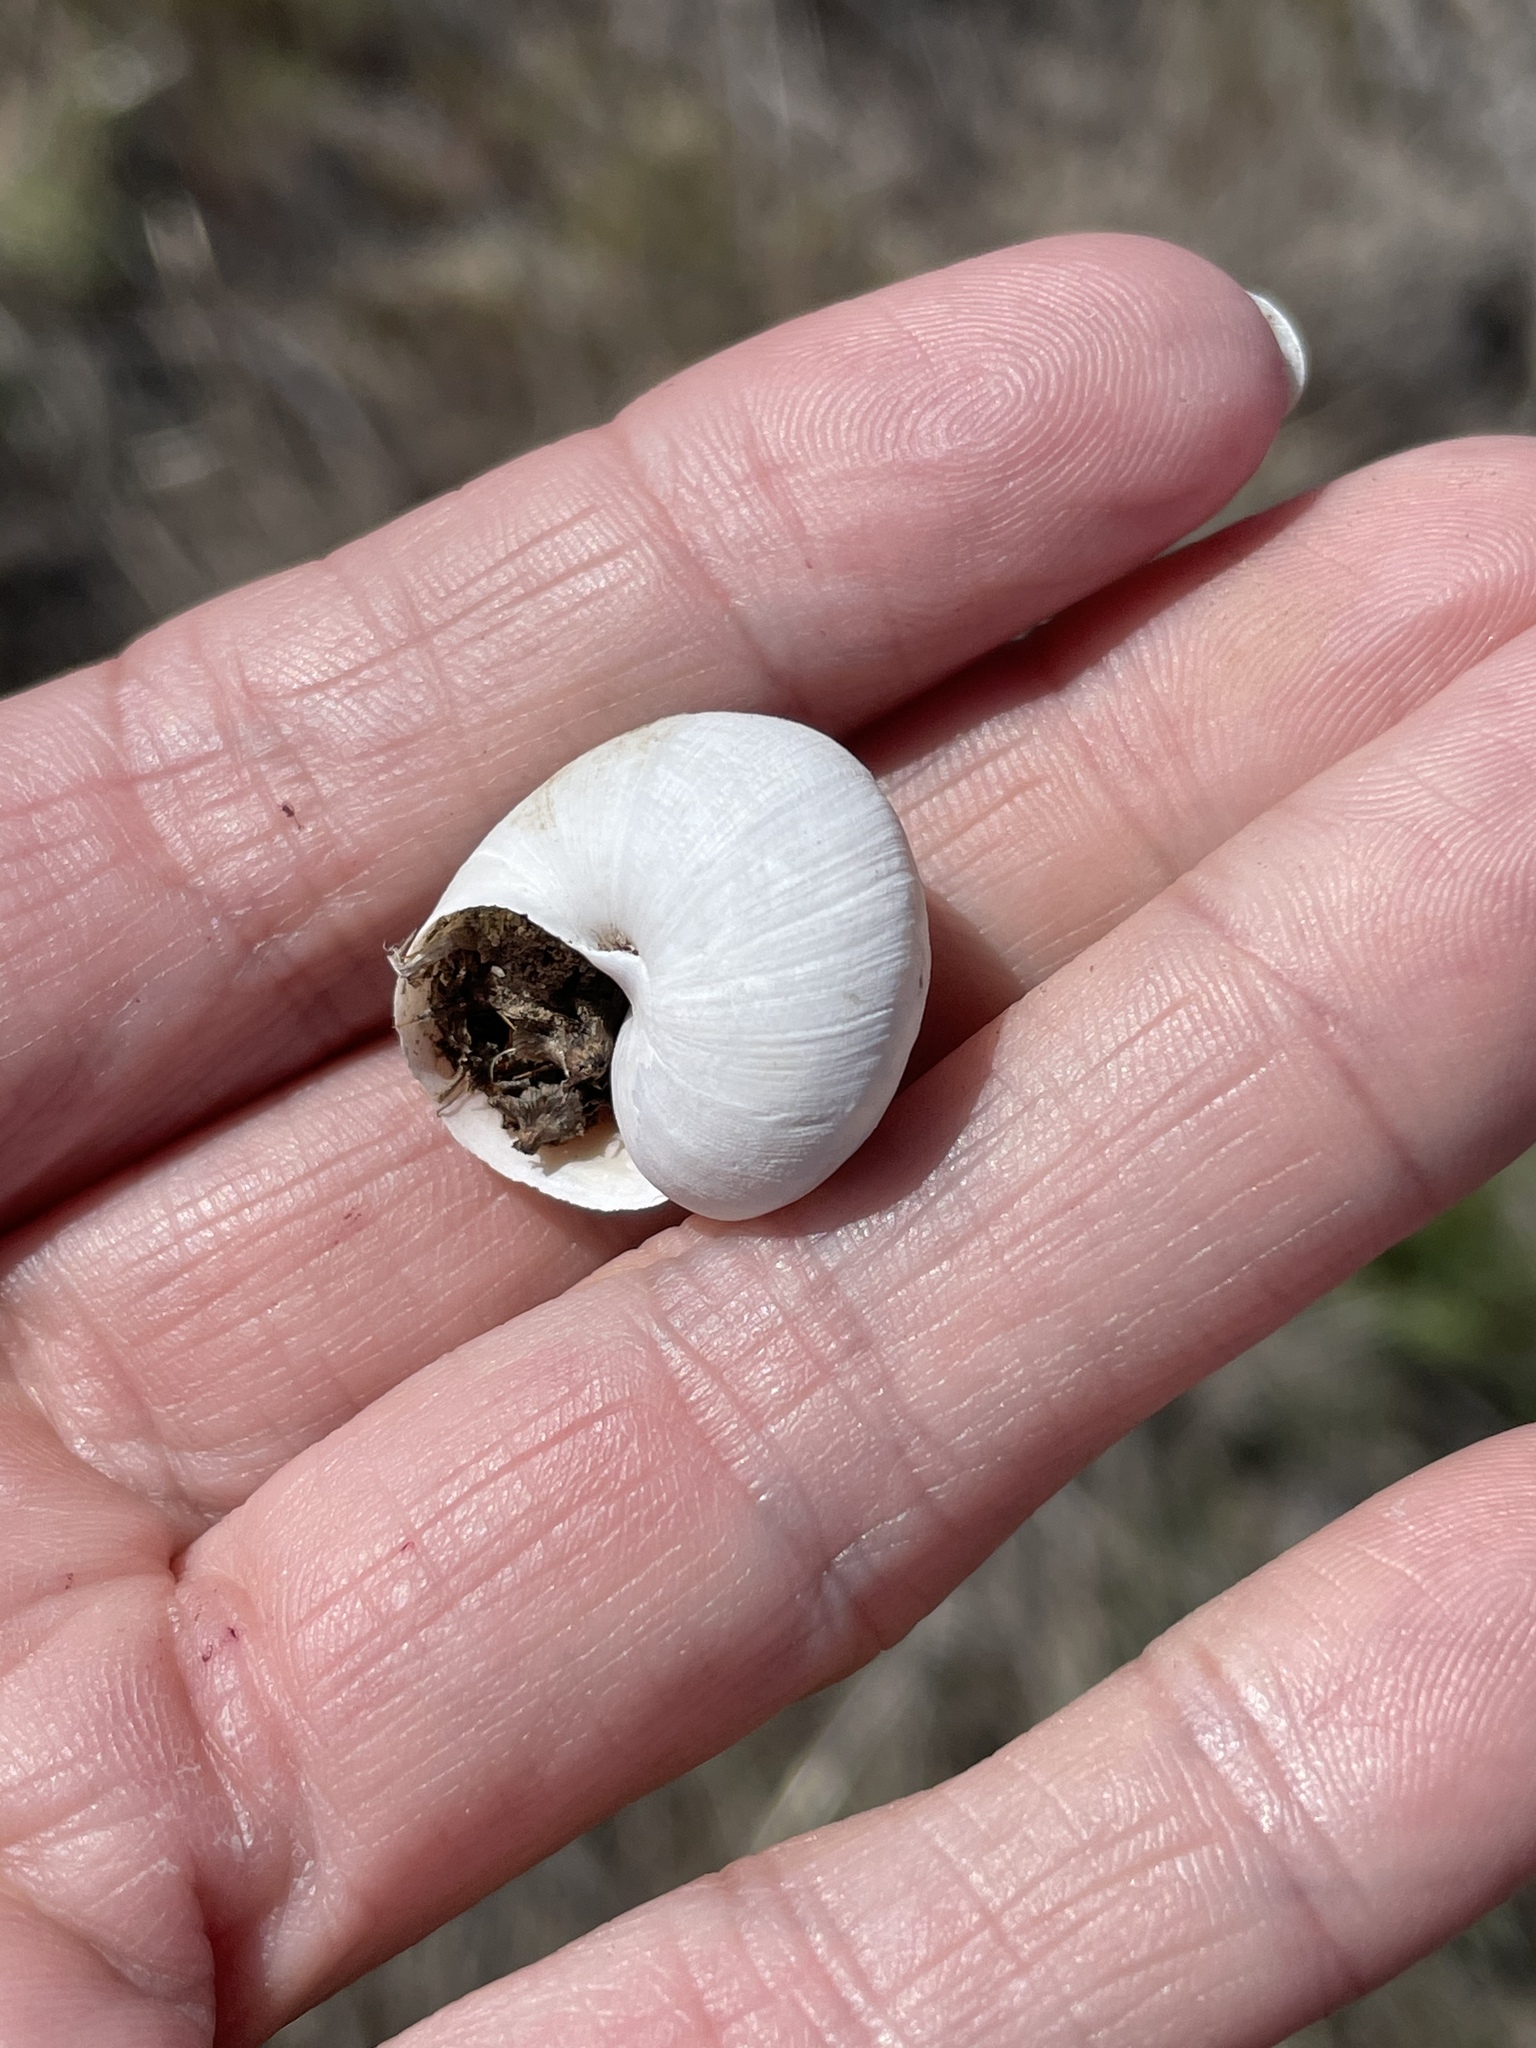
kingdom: Animalia
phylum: Mollusca
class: Gastropoda
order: Stylommatophora
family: Xanthonychidae
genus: Xerarionta
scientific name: Xerarionta redimita
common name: Wreathed cactus snail
